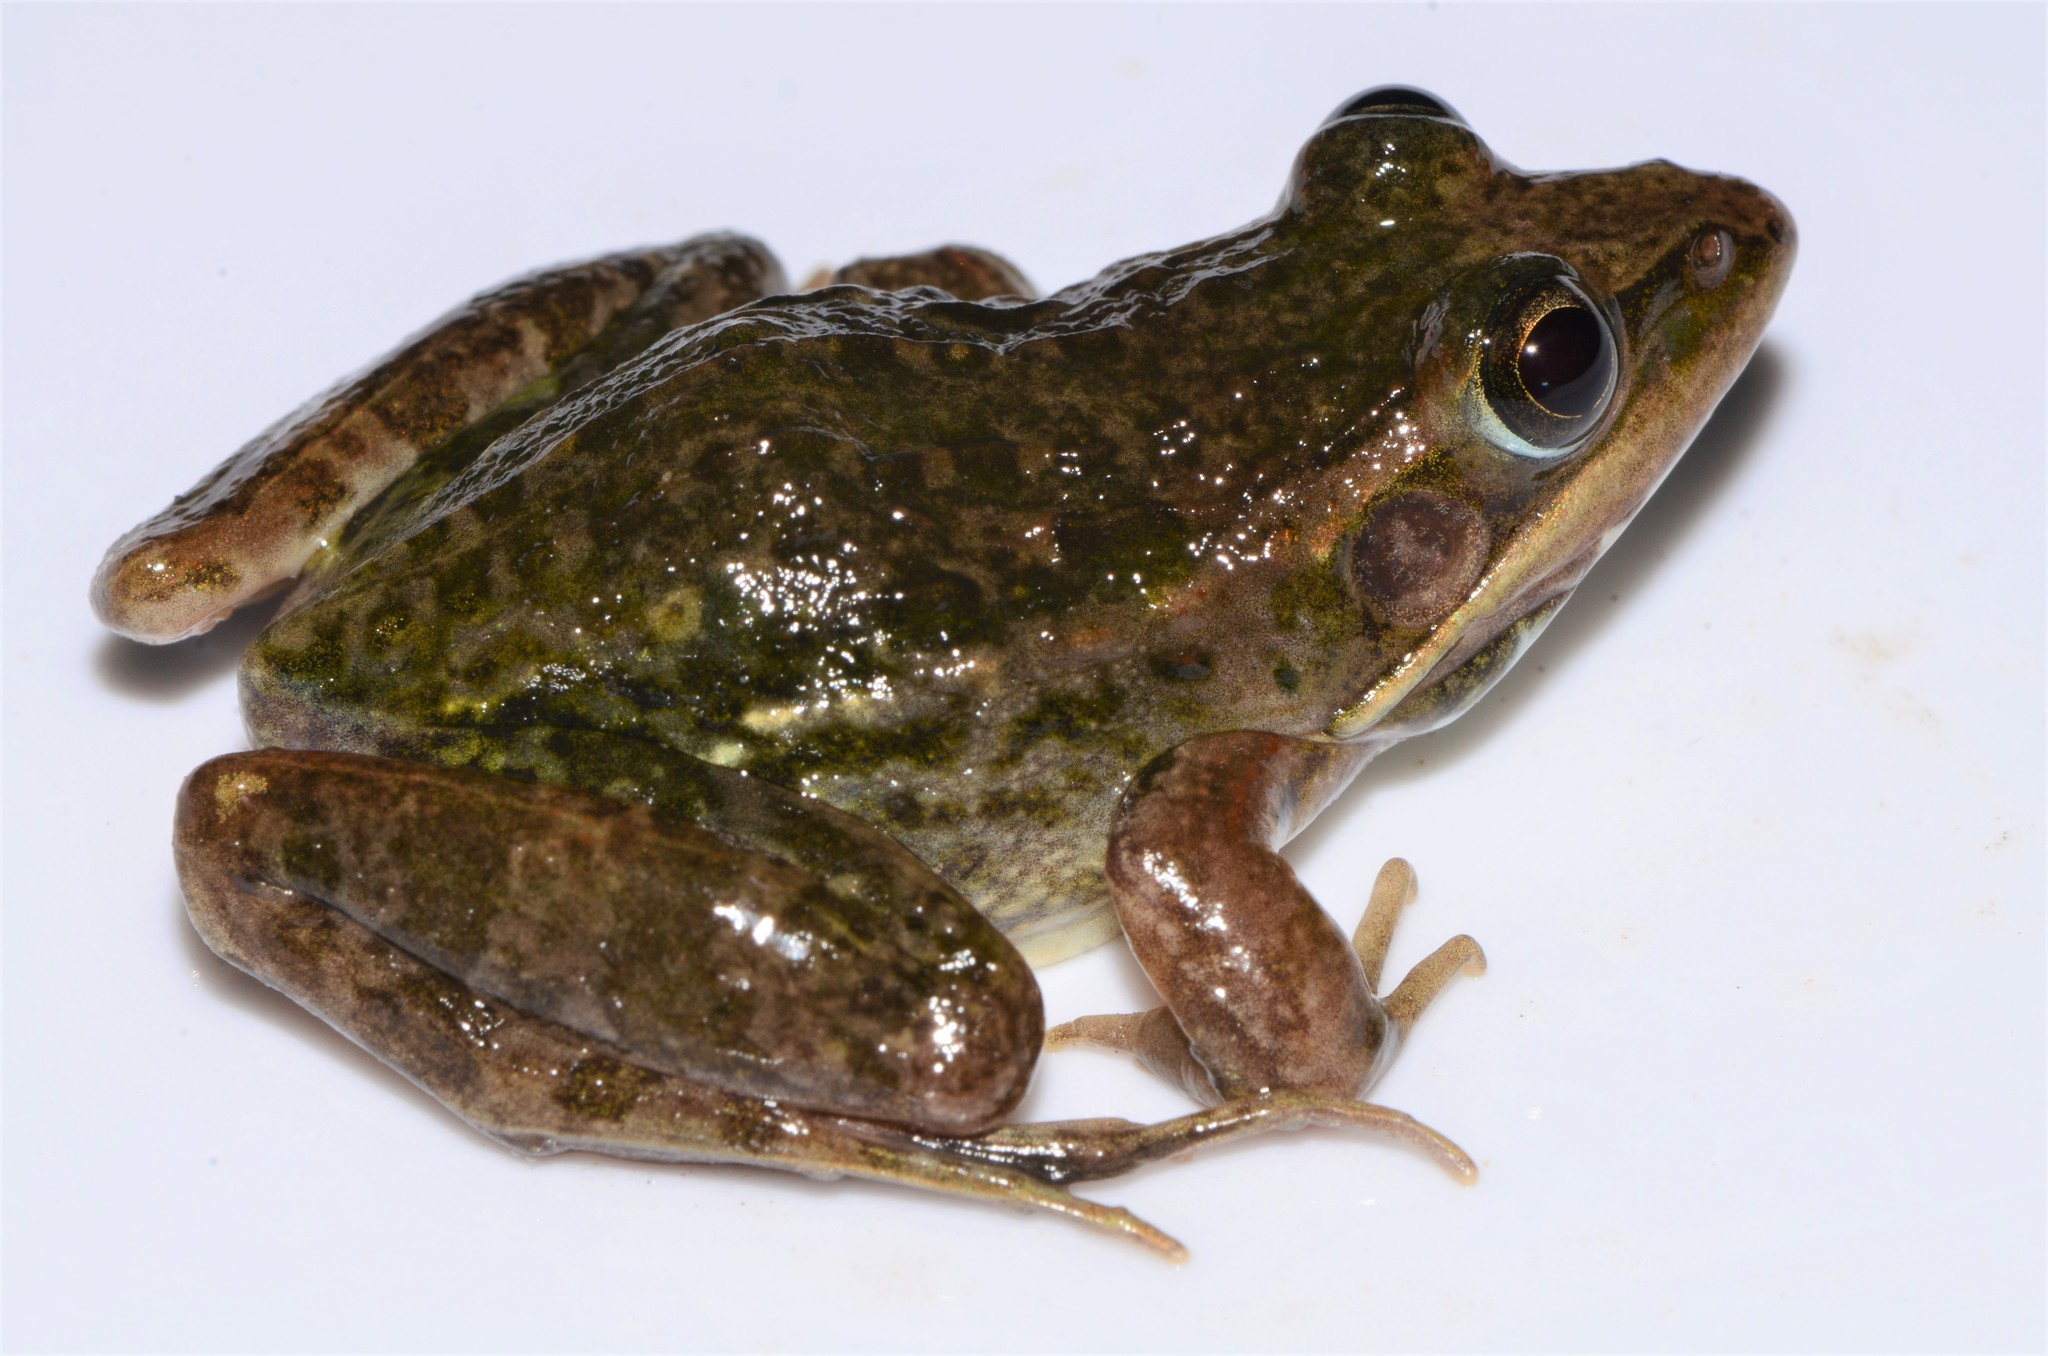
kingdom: Animalia
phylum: Chordata
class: Amphibia
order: Anura
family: Ptychadenidae
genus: Ptychadena
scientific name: Ptychadena nilotica
